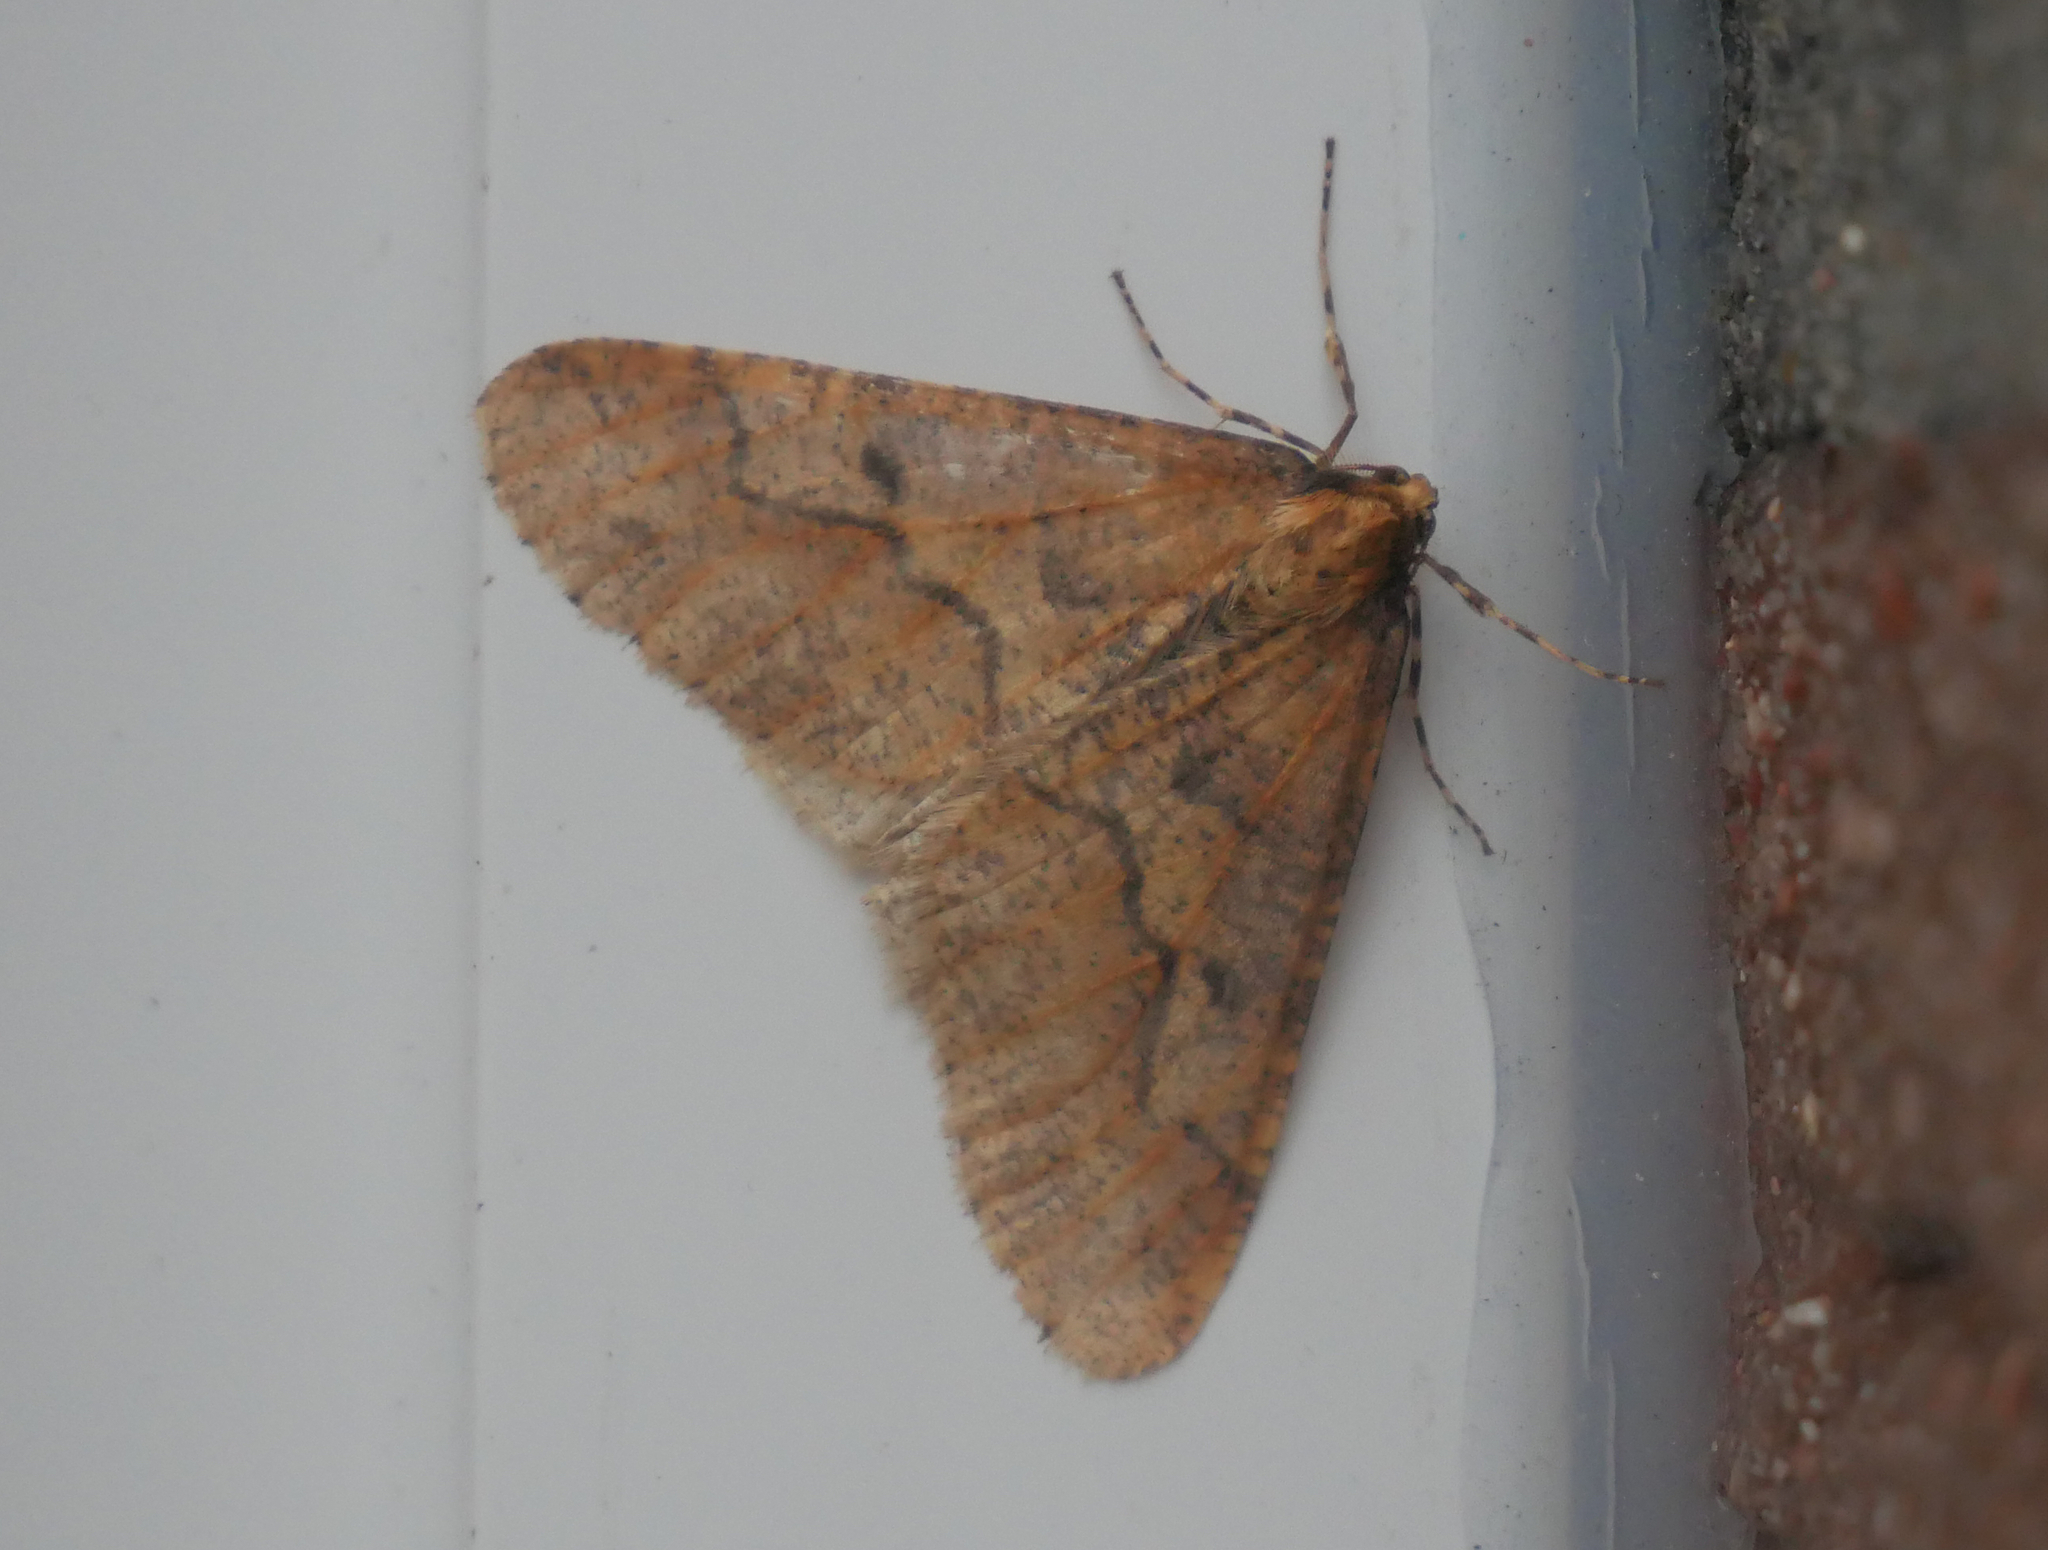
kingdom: Animalia
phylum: Arthropoda
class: Insecta
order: Lepidoptera
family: Geometridae
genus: Erannis
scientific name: Erannis defoliaria
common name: Mottled umber
